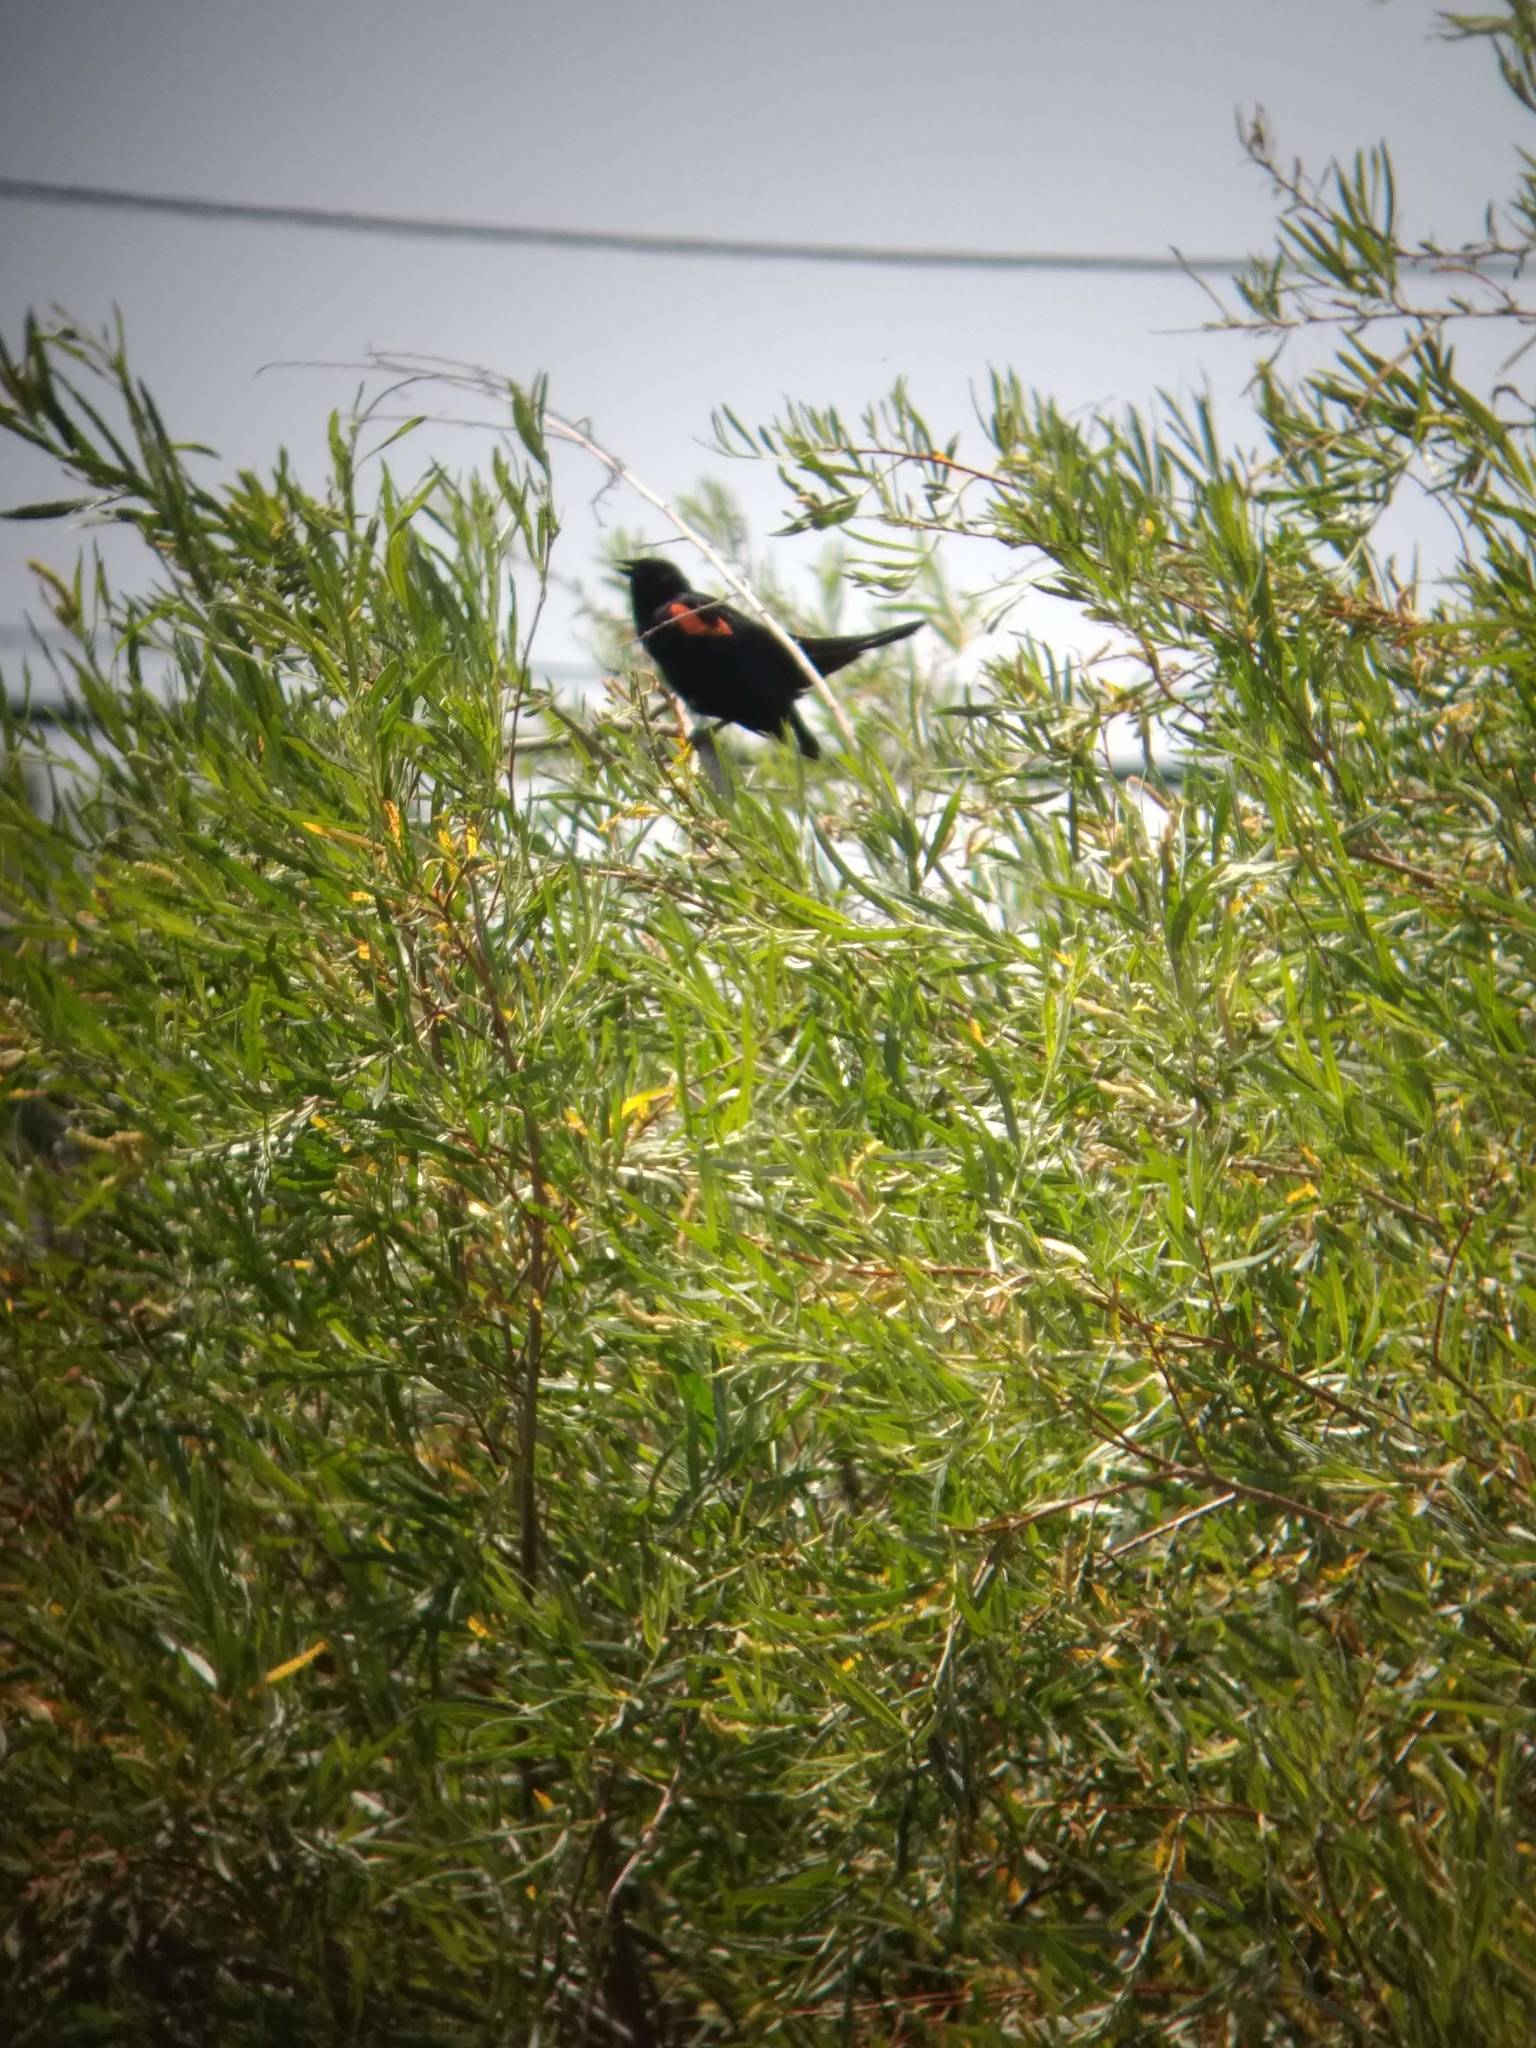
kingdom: Animalia
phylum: Chordata
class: Aves
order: Passeriformes
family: Icteridae
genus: Agelaius
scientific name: Agelaius phoeniceus
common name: Red-winged blackbird
